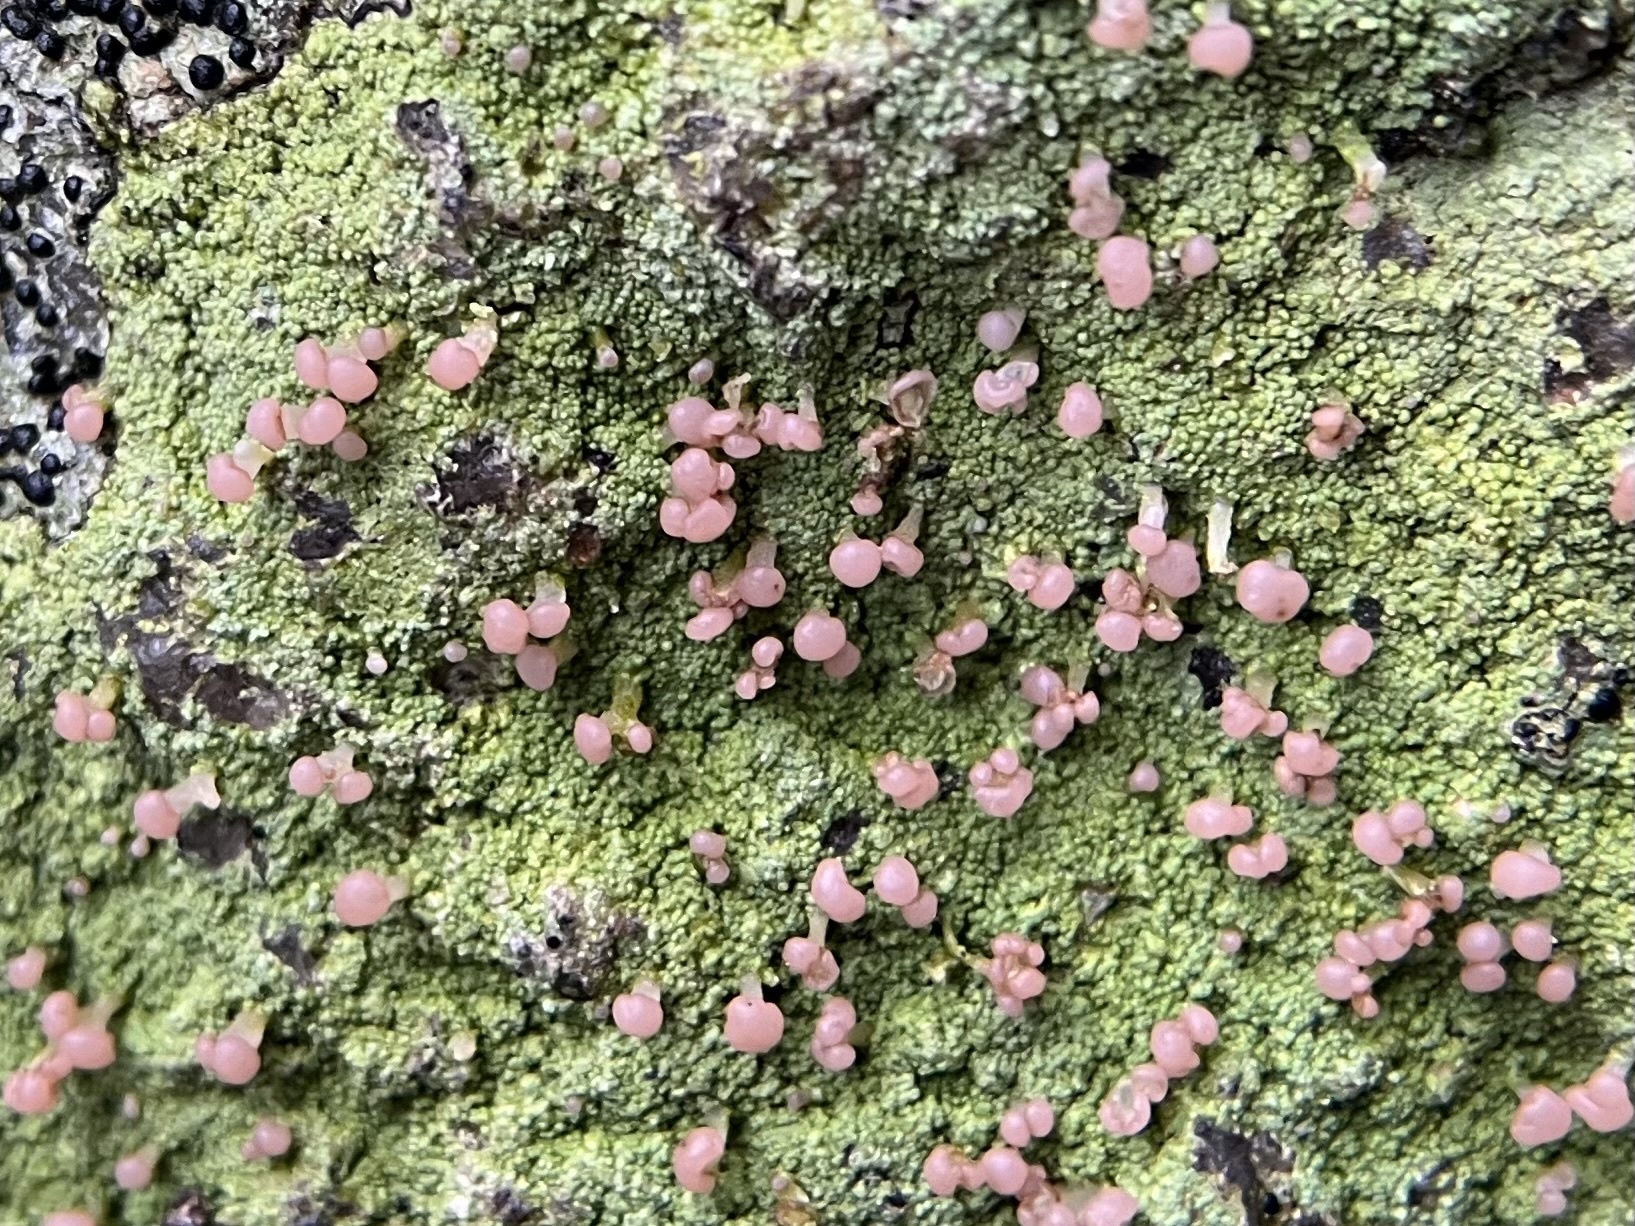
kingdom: Fungi
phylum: Ascomycota
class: Lecanoromycetes
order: Baeomycetales
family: Baeomycetaceae
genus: Baeomyces
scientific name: Baeomyces rufus
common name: Brown beret lichen
